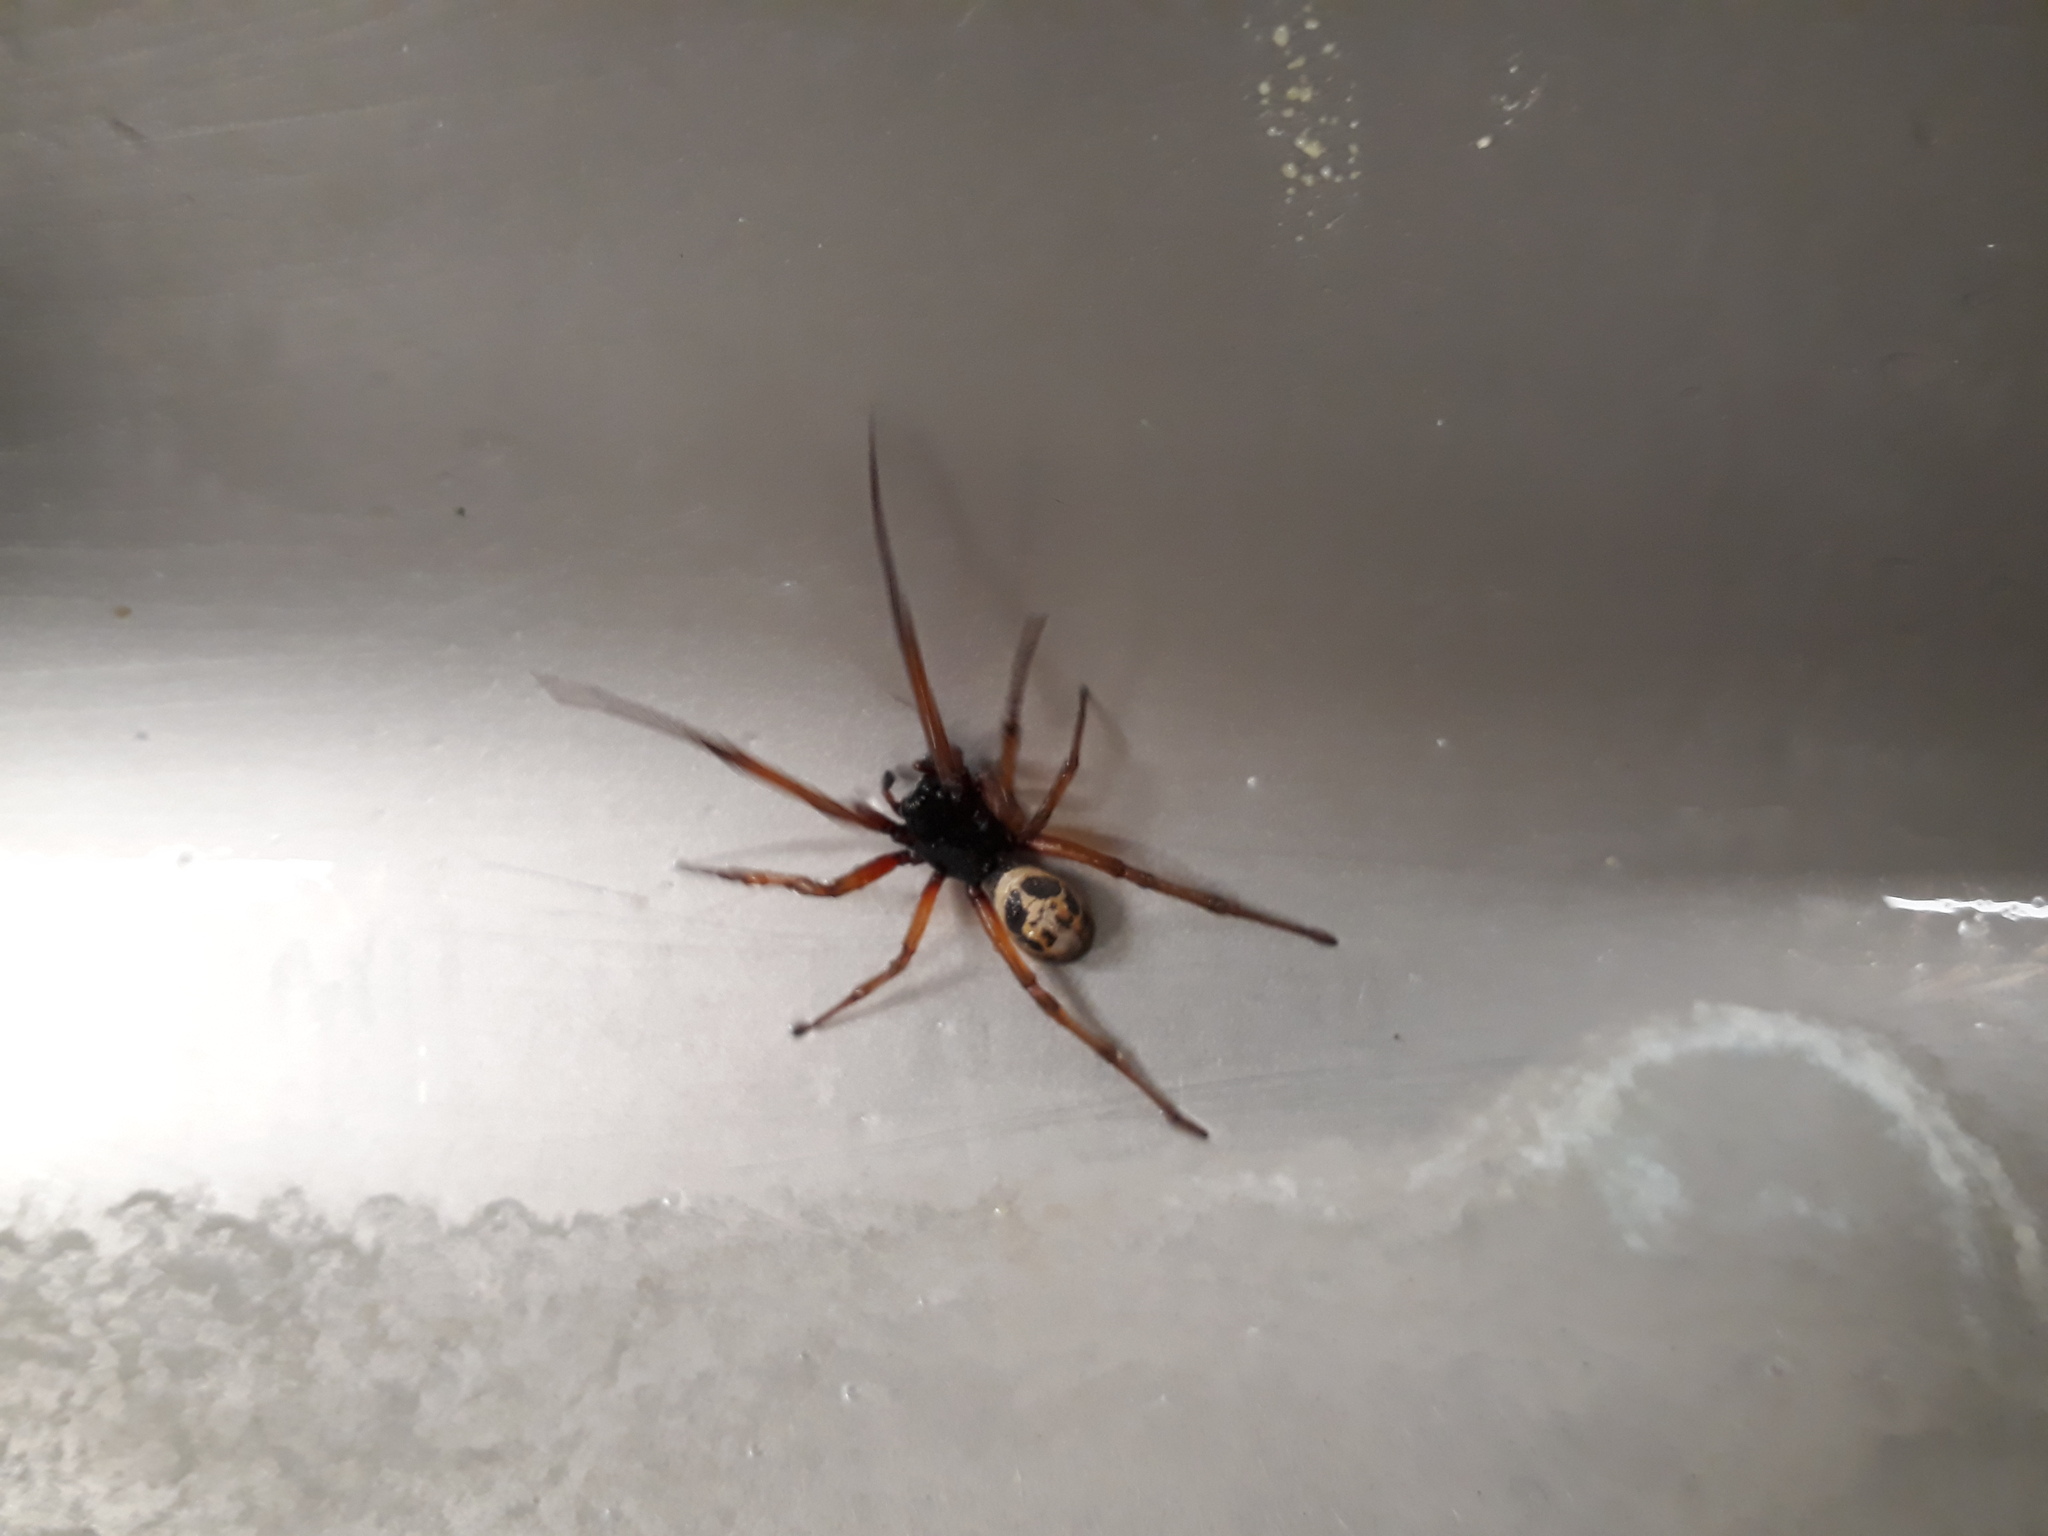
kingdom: Animalia
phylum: Arthropoda
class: Arachnida
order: Araneae
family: Theridiidae
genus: Steatoda
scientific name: Steatoda nobilis
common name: Cobweb weaver
